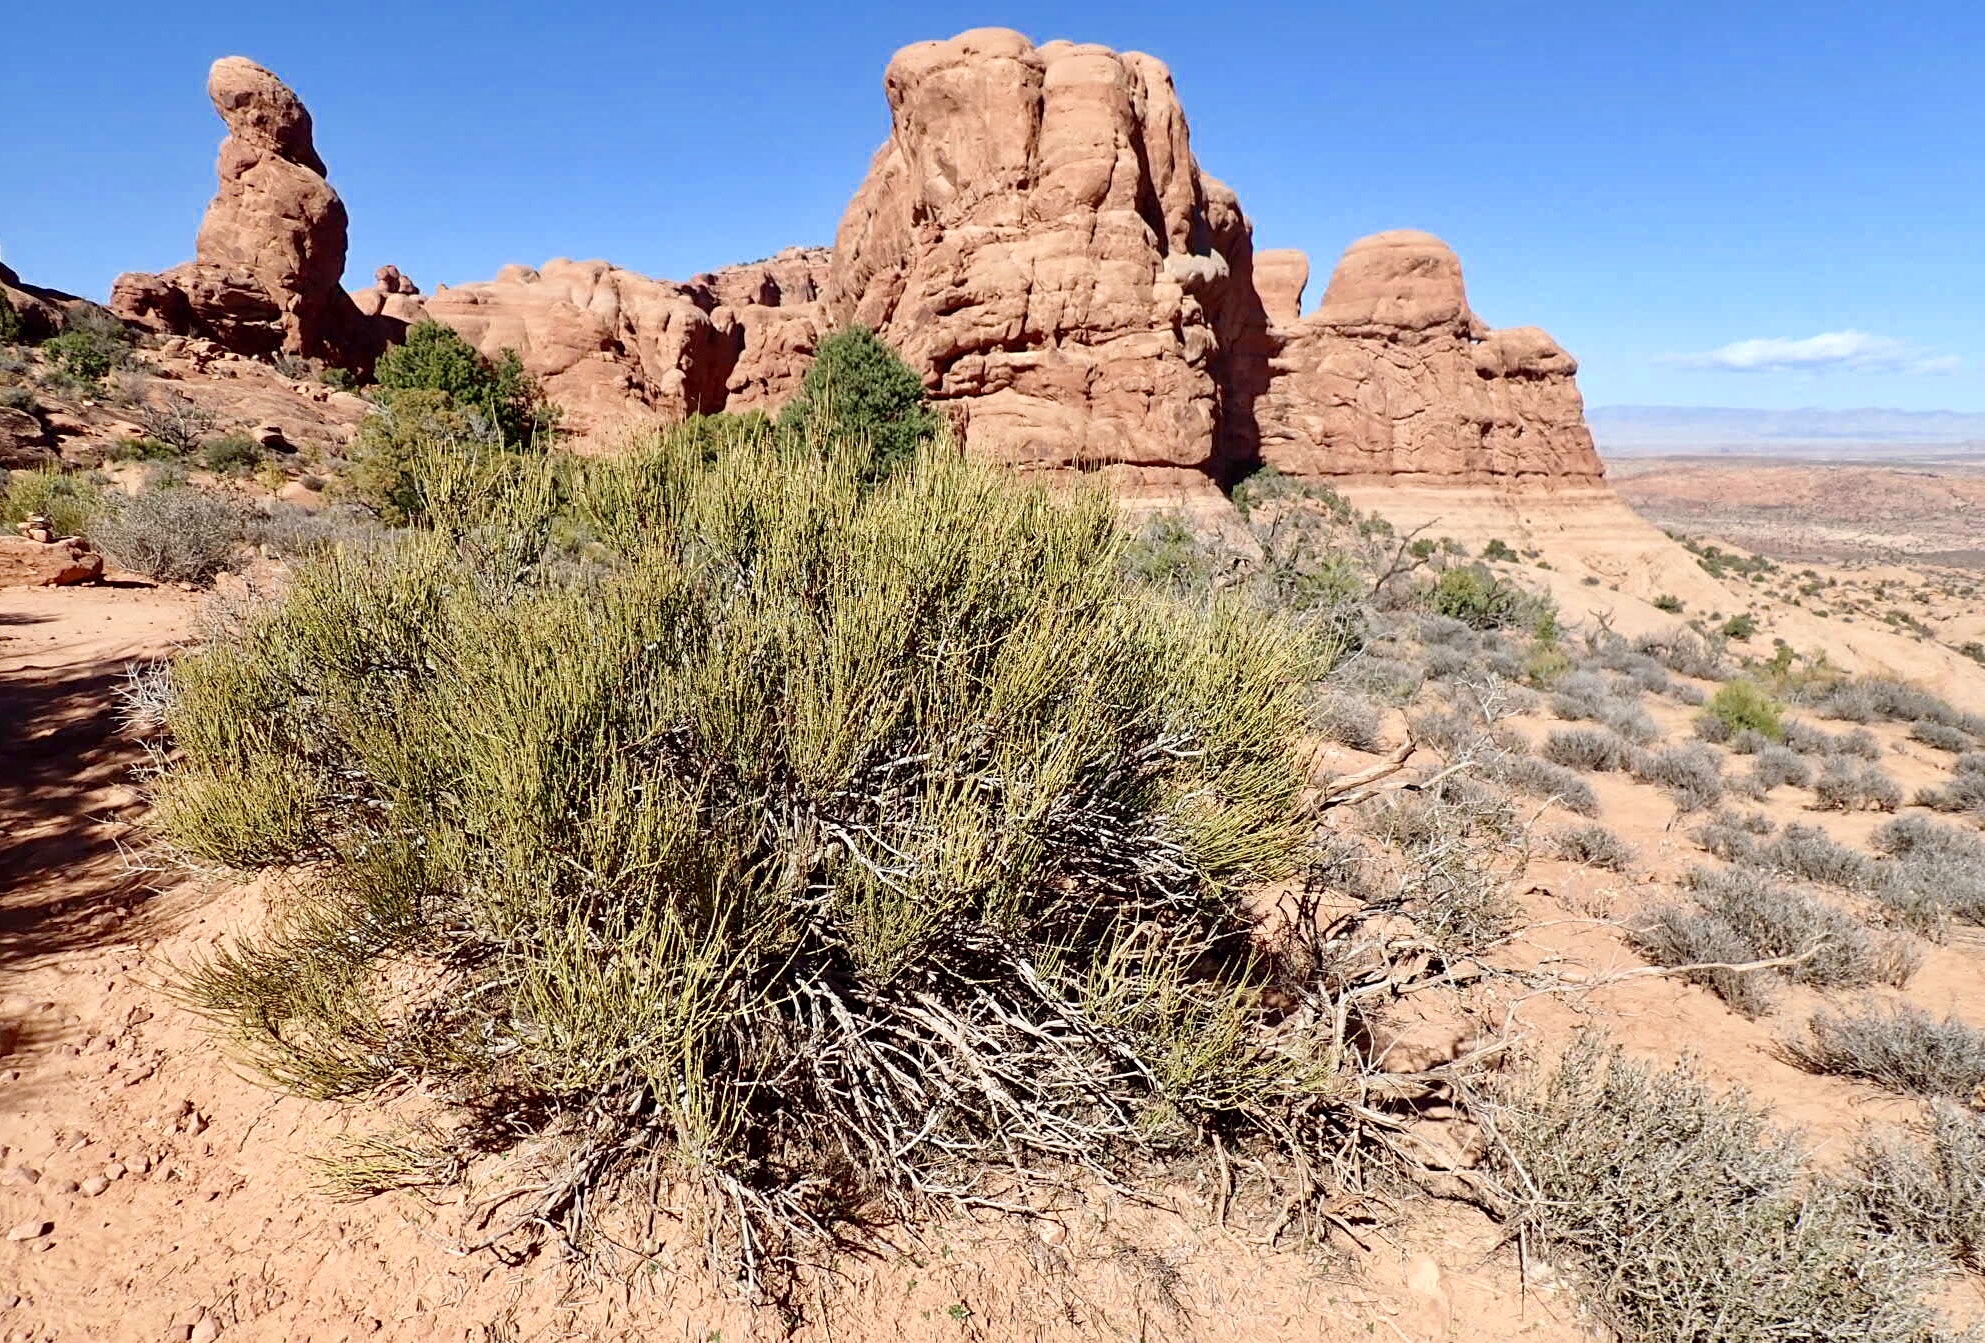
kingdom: Plantae
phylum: Tracheophyta
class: Gnetopsida
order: Ephedrales
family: Ephedraceae
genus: Ephedra
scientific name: Ephedra viridis
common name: Green ephedra
